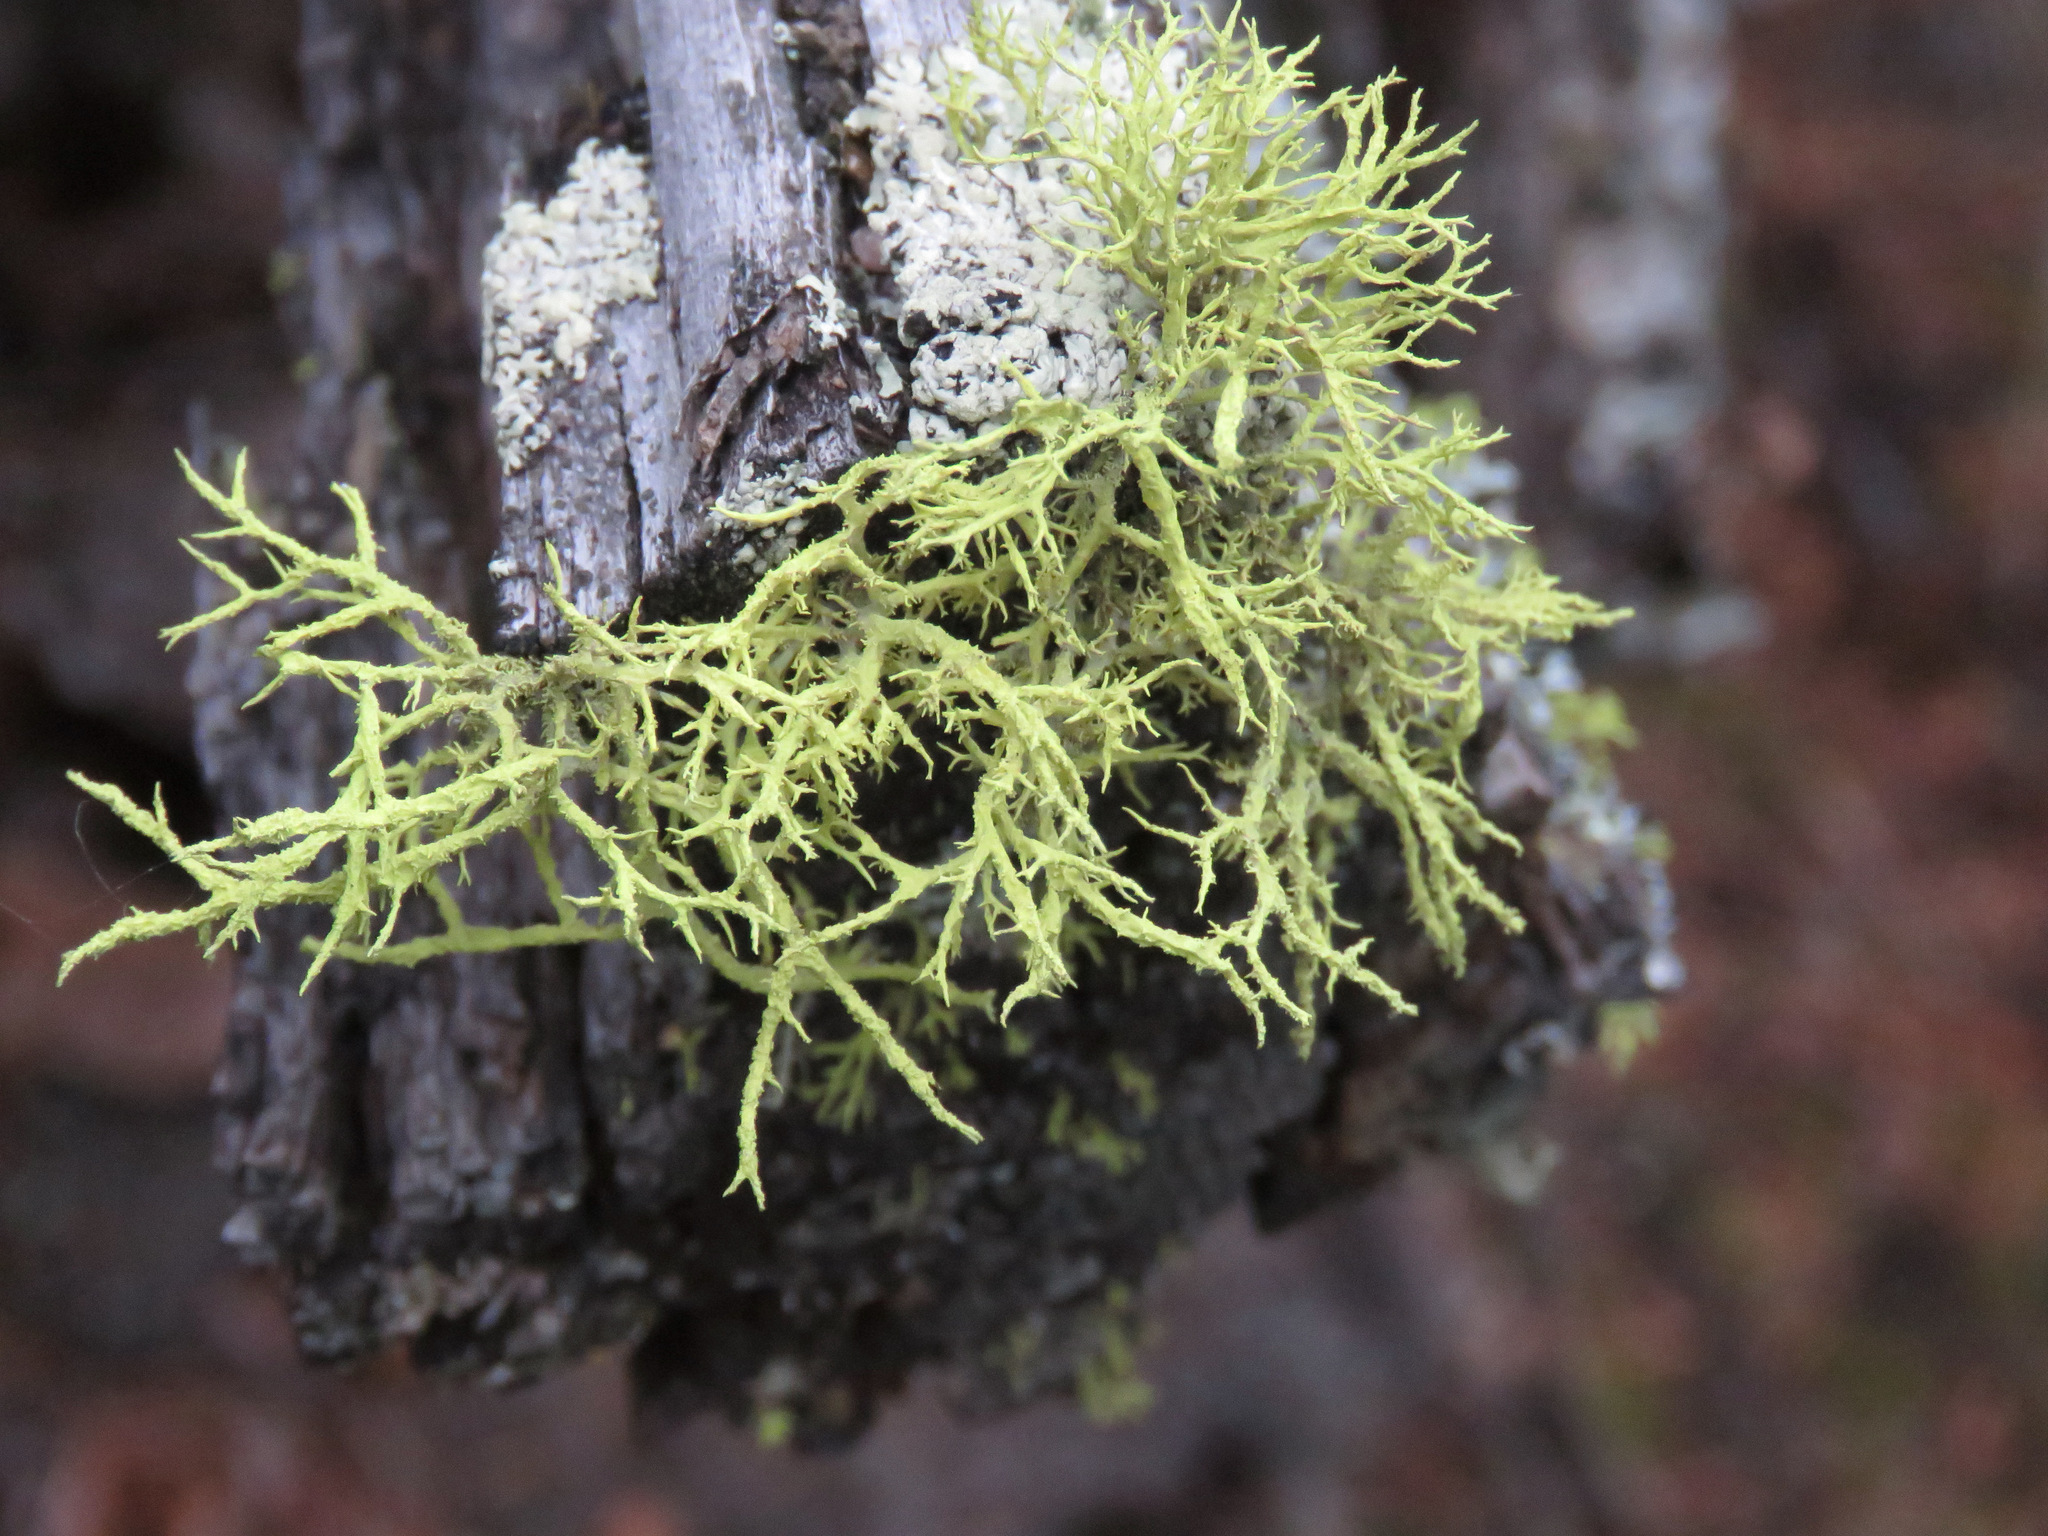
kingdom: Fungi
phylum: Ascomycota
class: Lecanoromycetes
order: Lecanorales
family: Parmeliaceae
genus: Letharia
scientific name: Letharia vulpina
